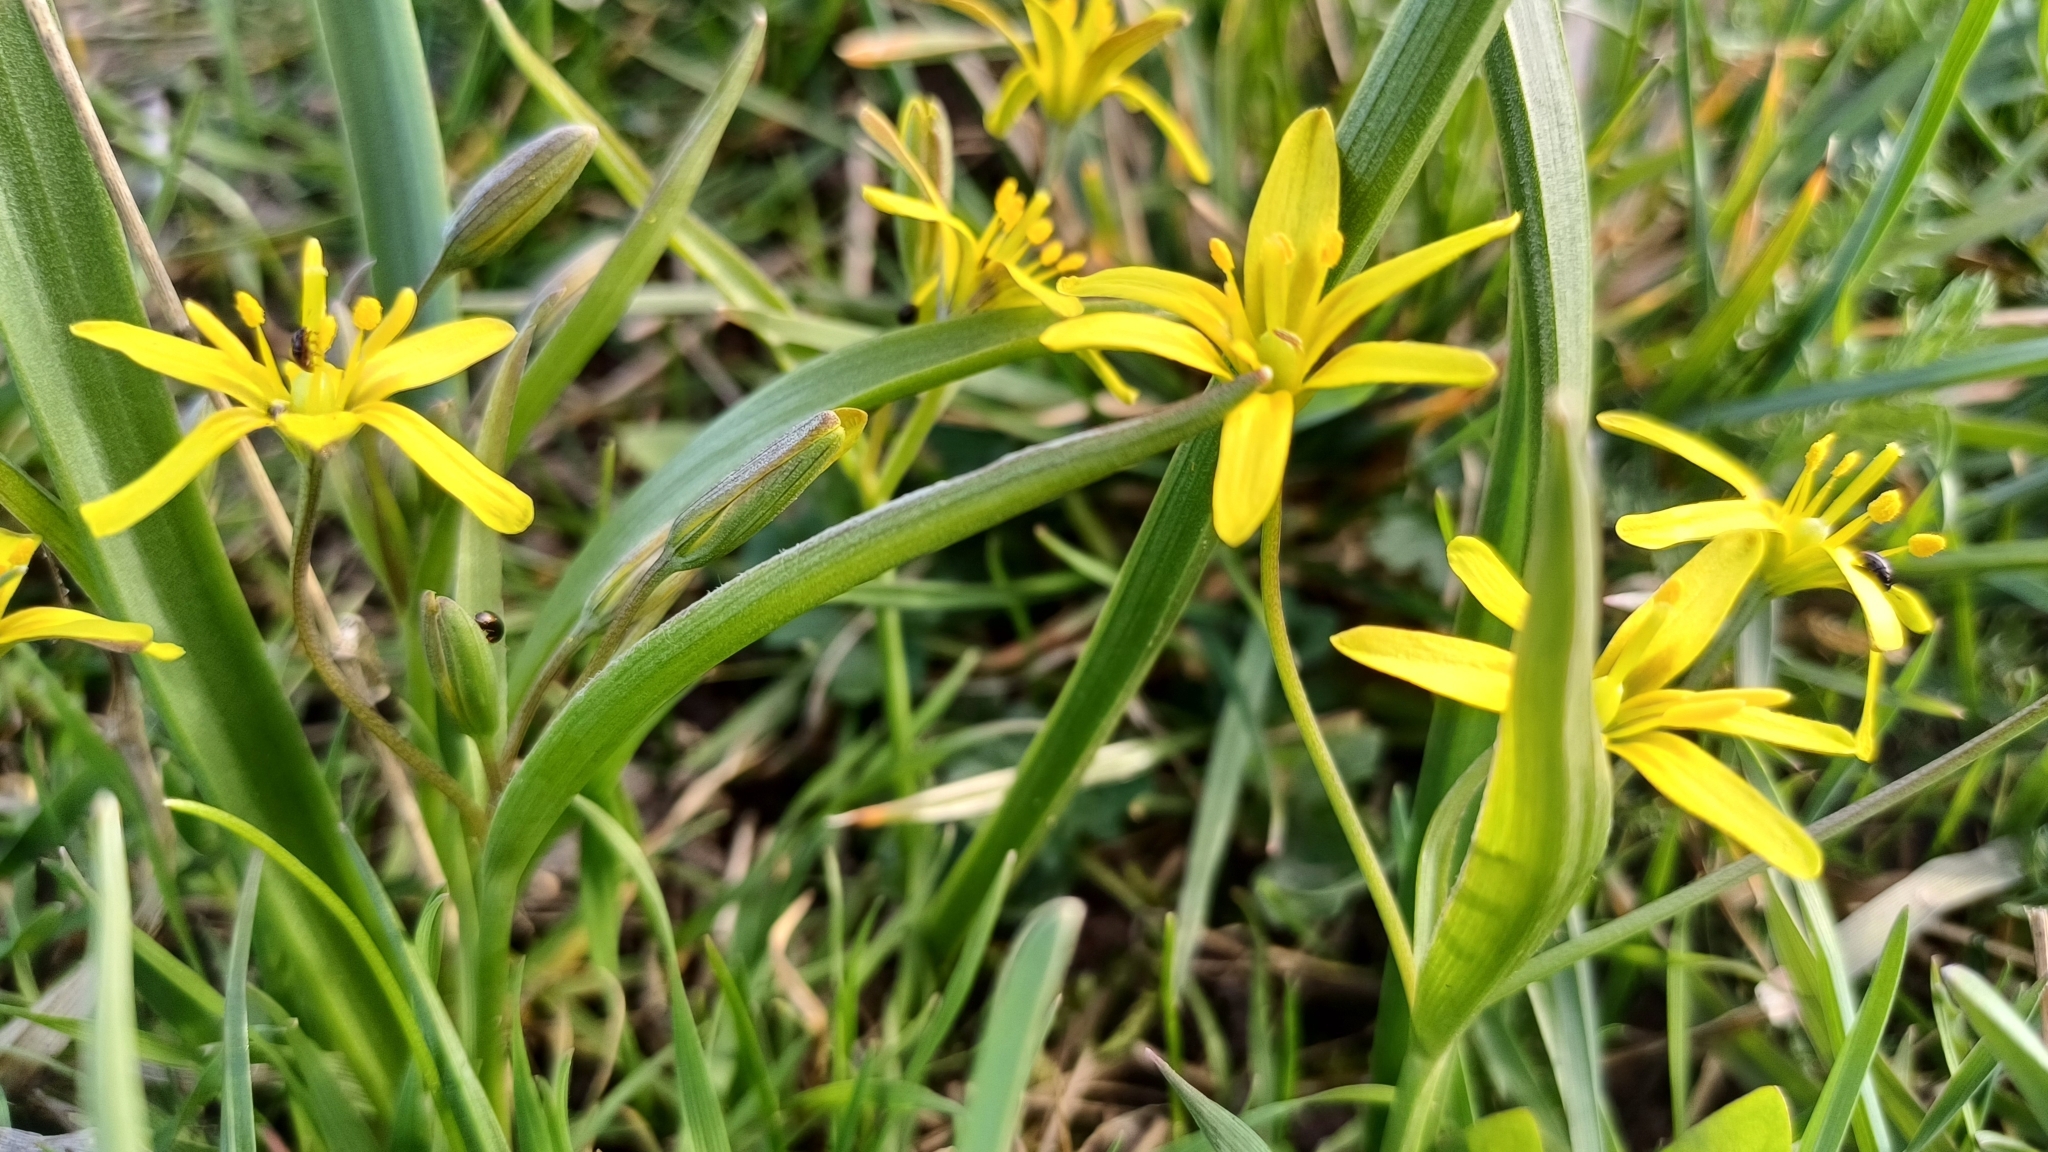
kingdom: Plantae
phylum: Tracheophyta
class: Liliopsida
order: Liliales
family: Liliaceae
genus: Gagea
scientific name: Gagea lutea
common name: Yellow star-of-bethlehem
